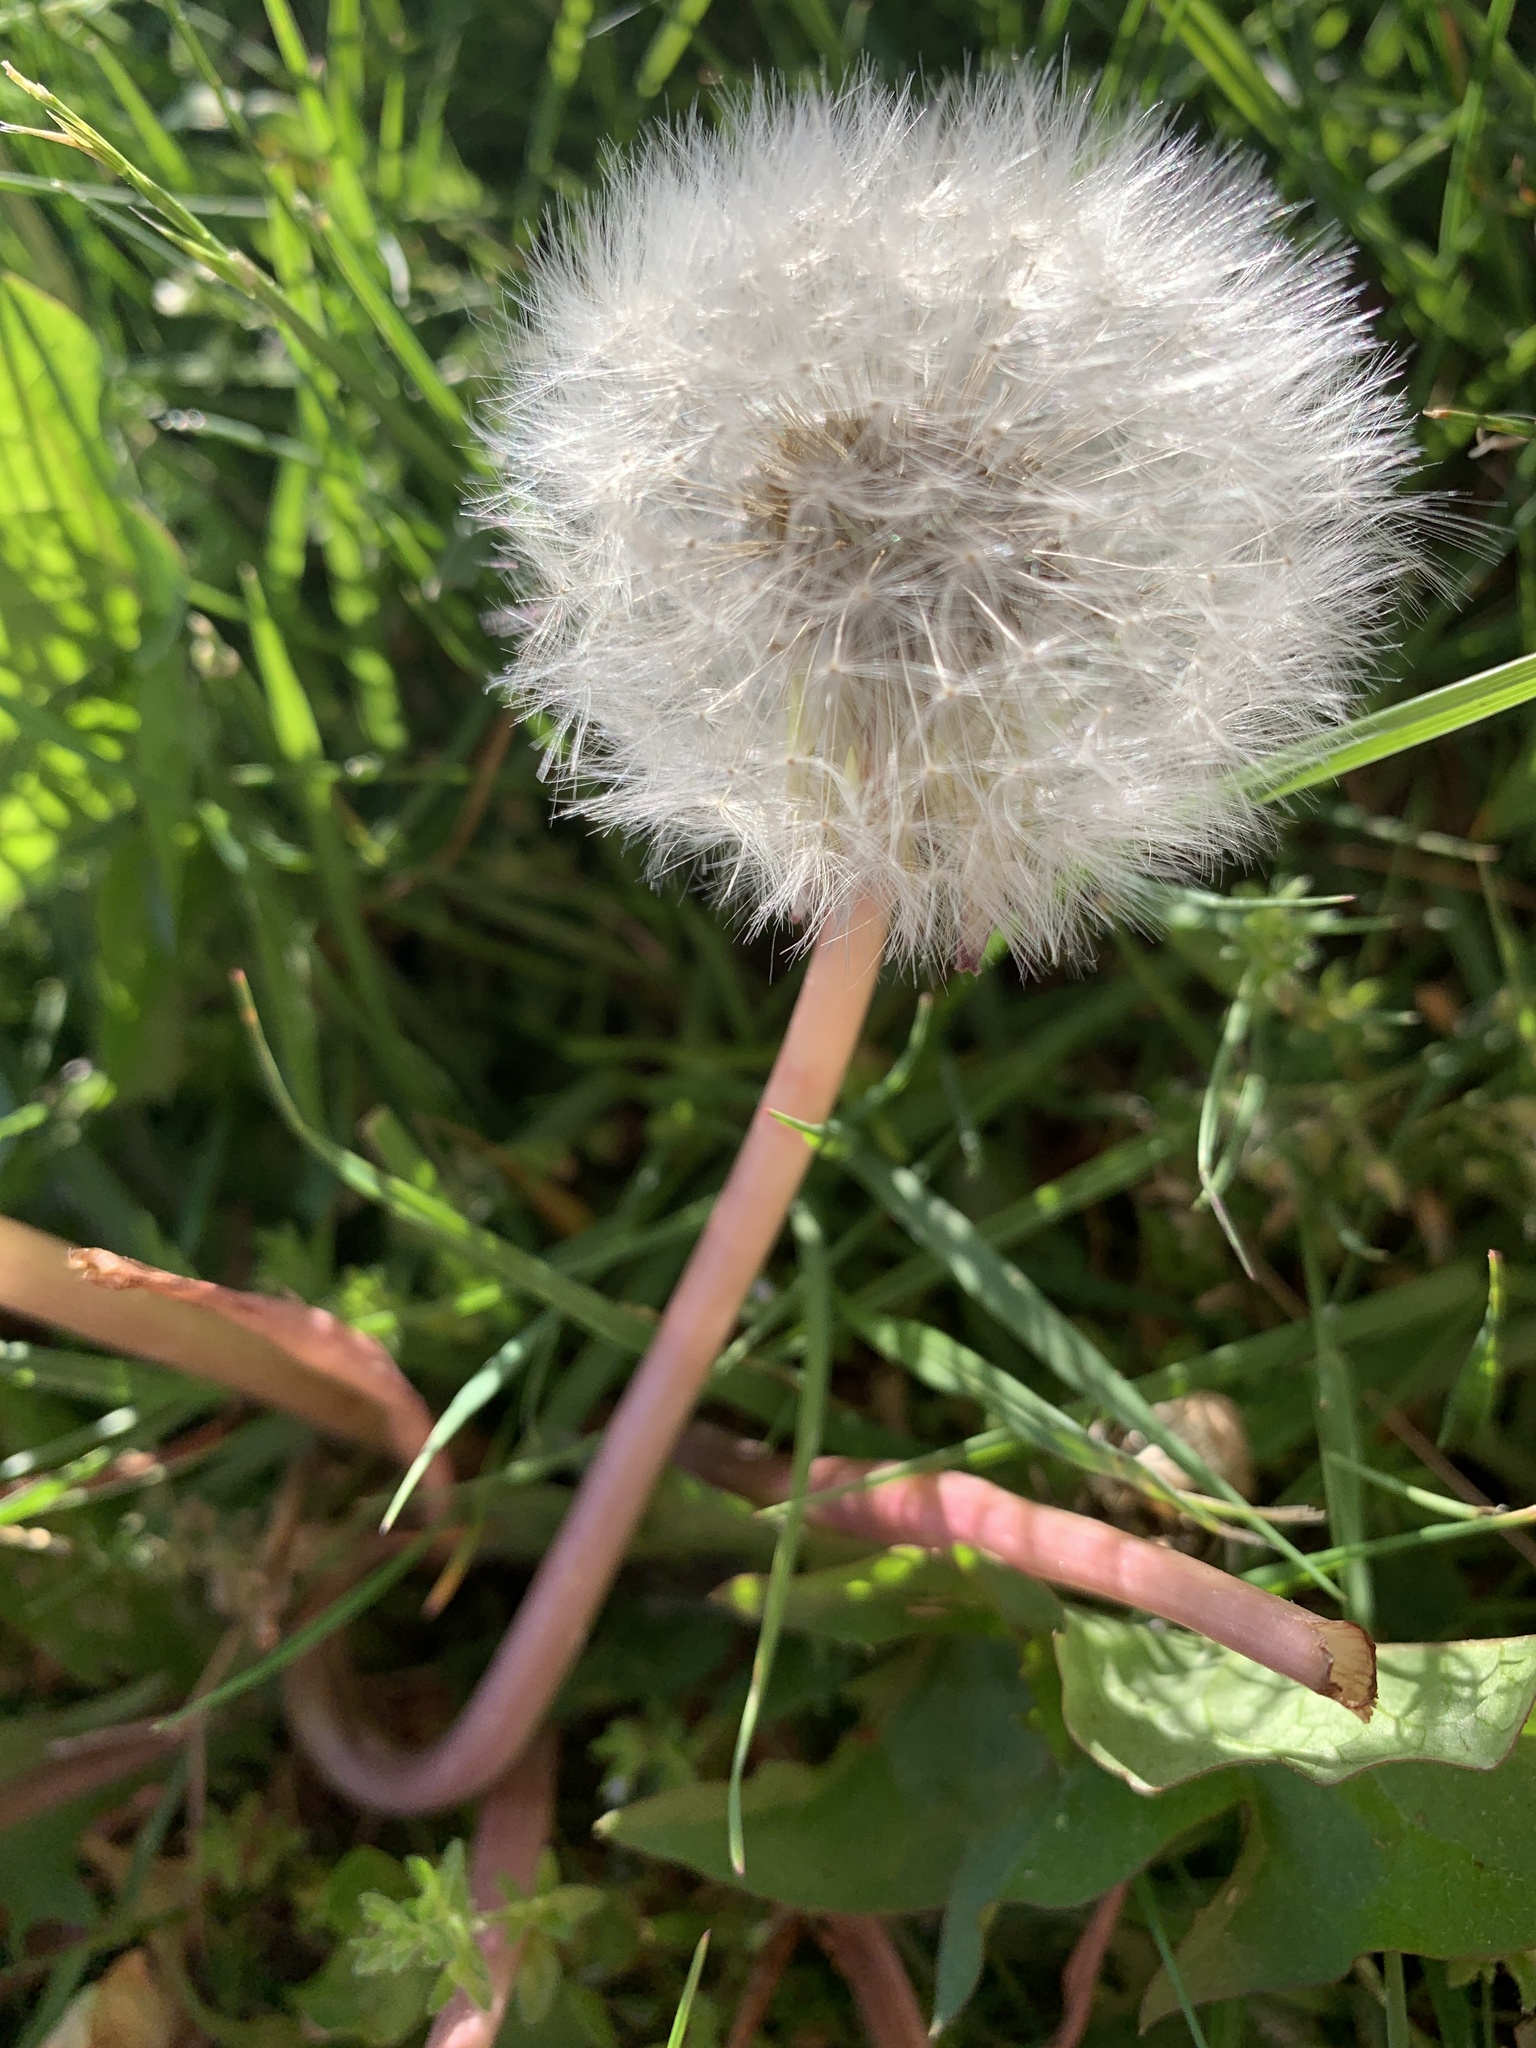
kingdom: Plantae
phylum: Tracheophyta
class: Magnoliopsida
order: Asterales
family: Asteraceae
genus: Taraxacum
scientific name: Taraxacum officinale
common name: Common dandelion
